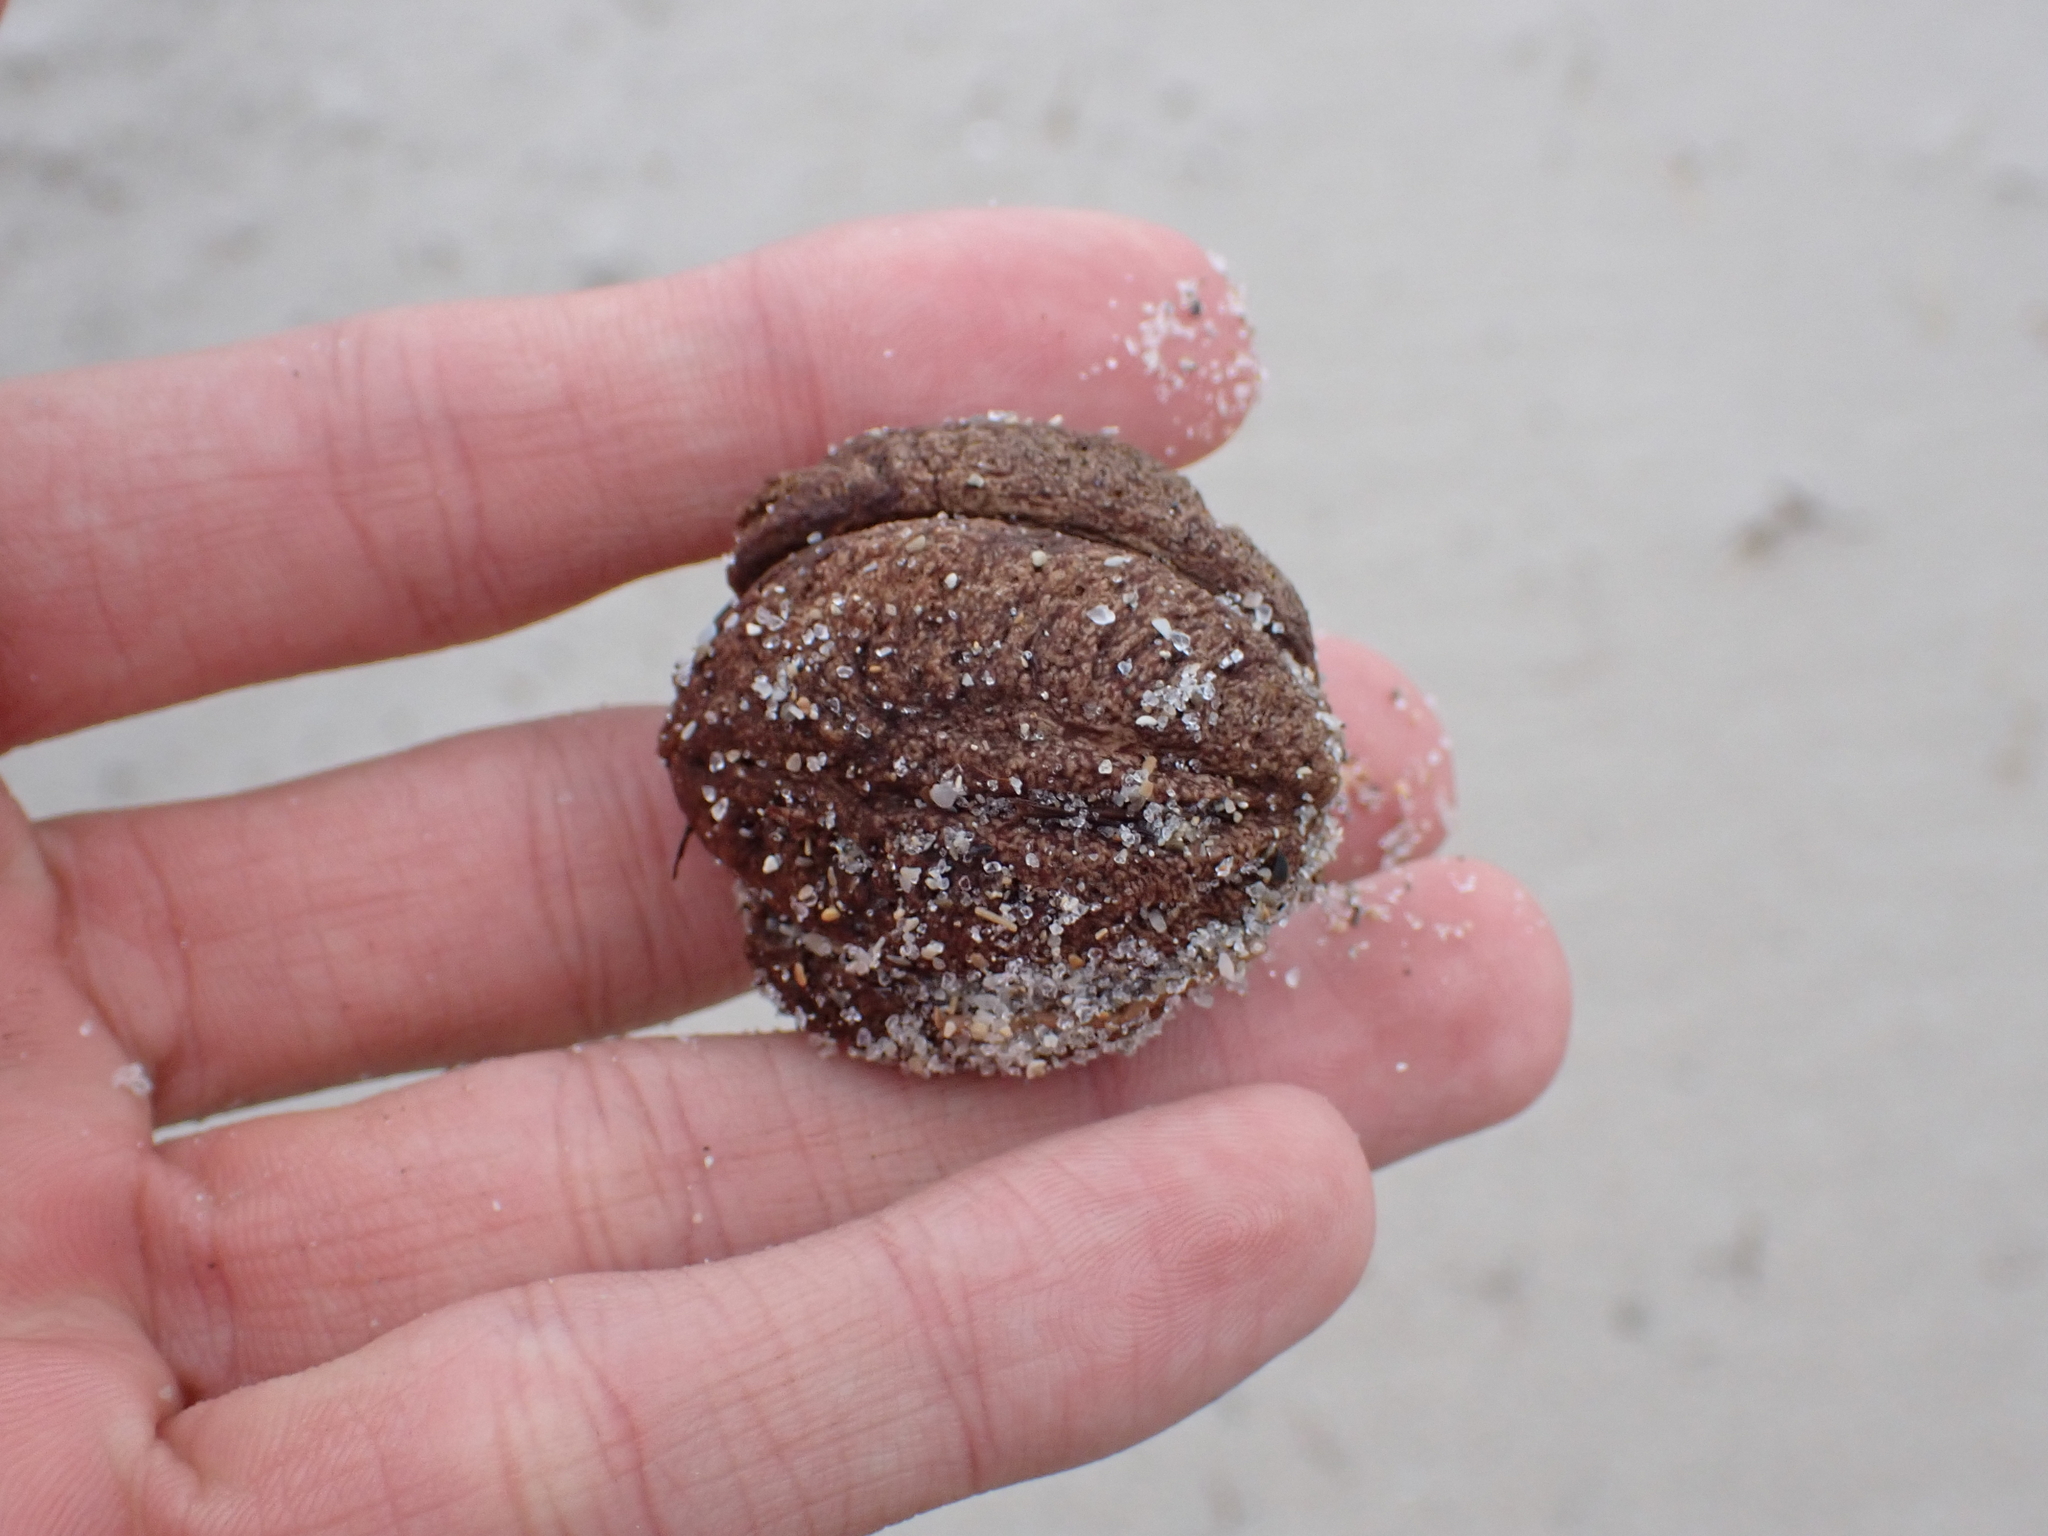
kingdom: Plantae
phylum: Tracheophyta
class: Magnoliopsida
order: Myrtales
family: Combretaceae
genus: Terminalia
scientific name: Terminalia catappa
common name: Tropical almond
